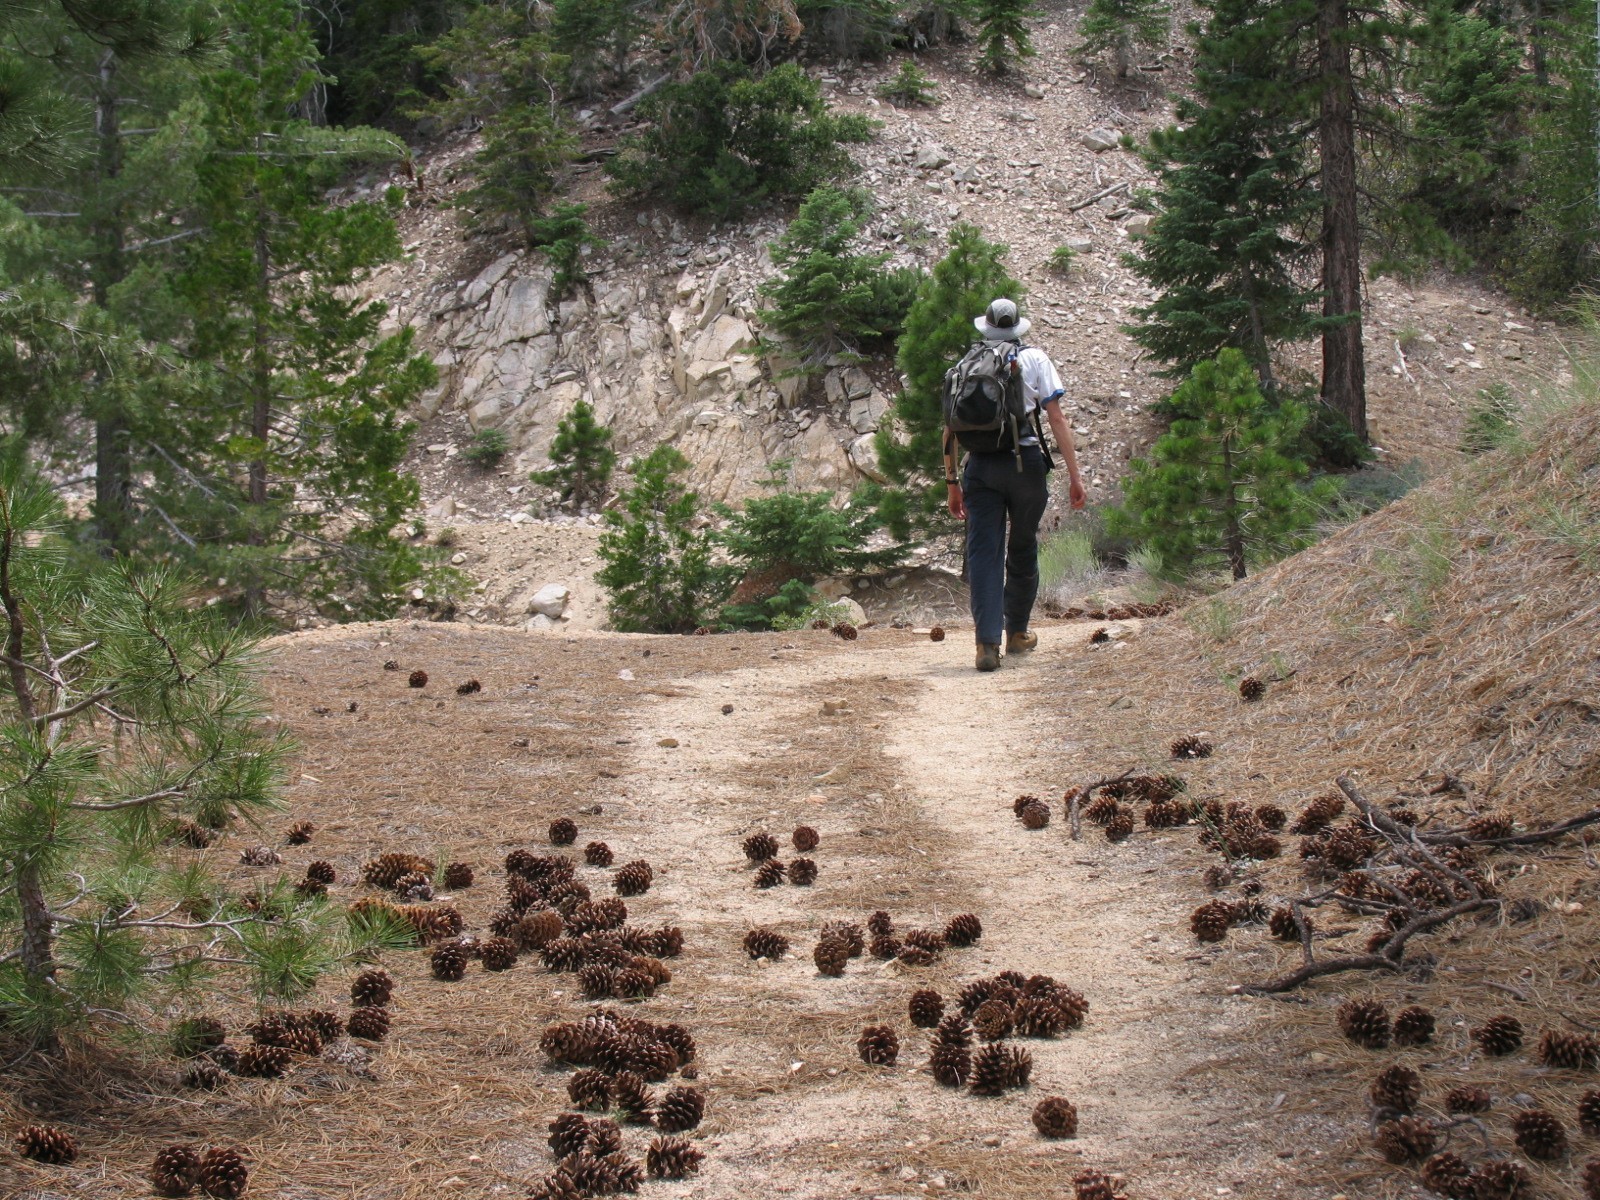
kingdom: Plantae
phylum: Tracheophyta
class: Pinopsida
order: Pinales
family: Pinaceae
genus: Pinus
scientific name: Pinus ponderosa
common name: Western yellow-pine
